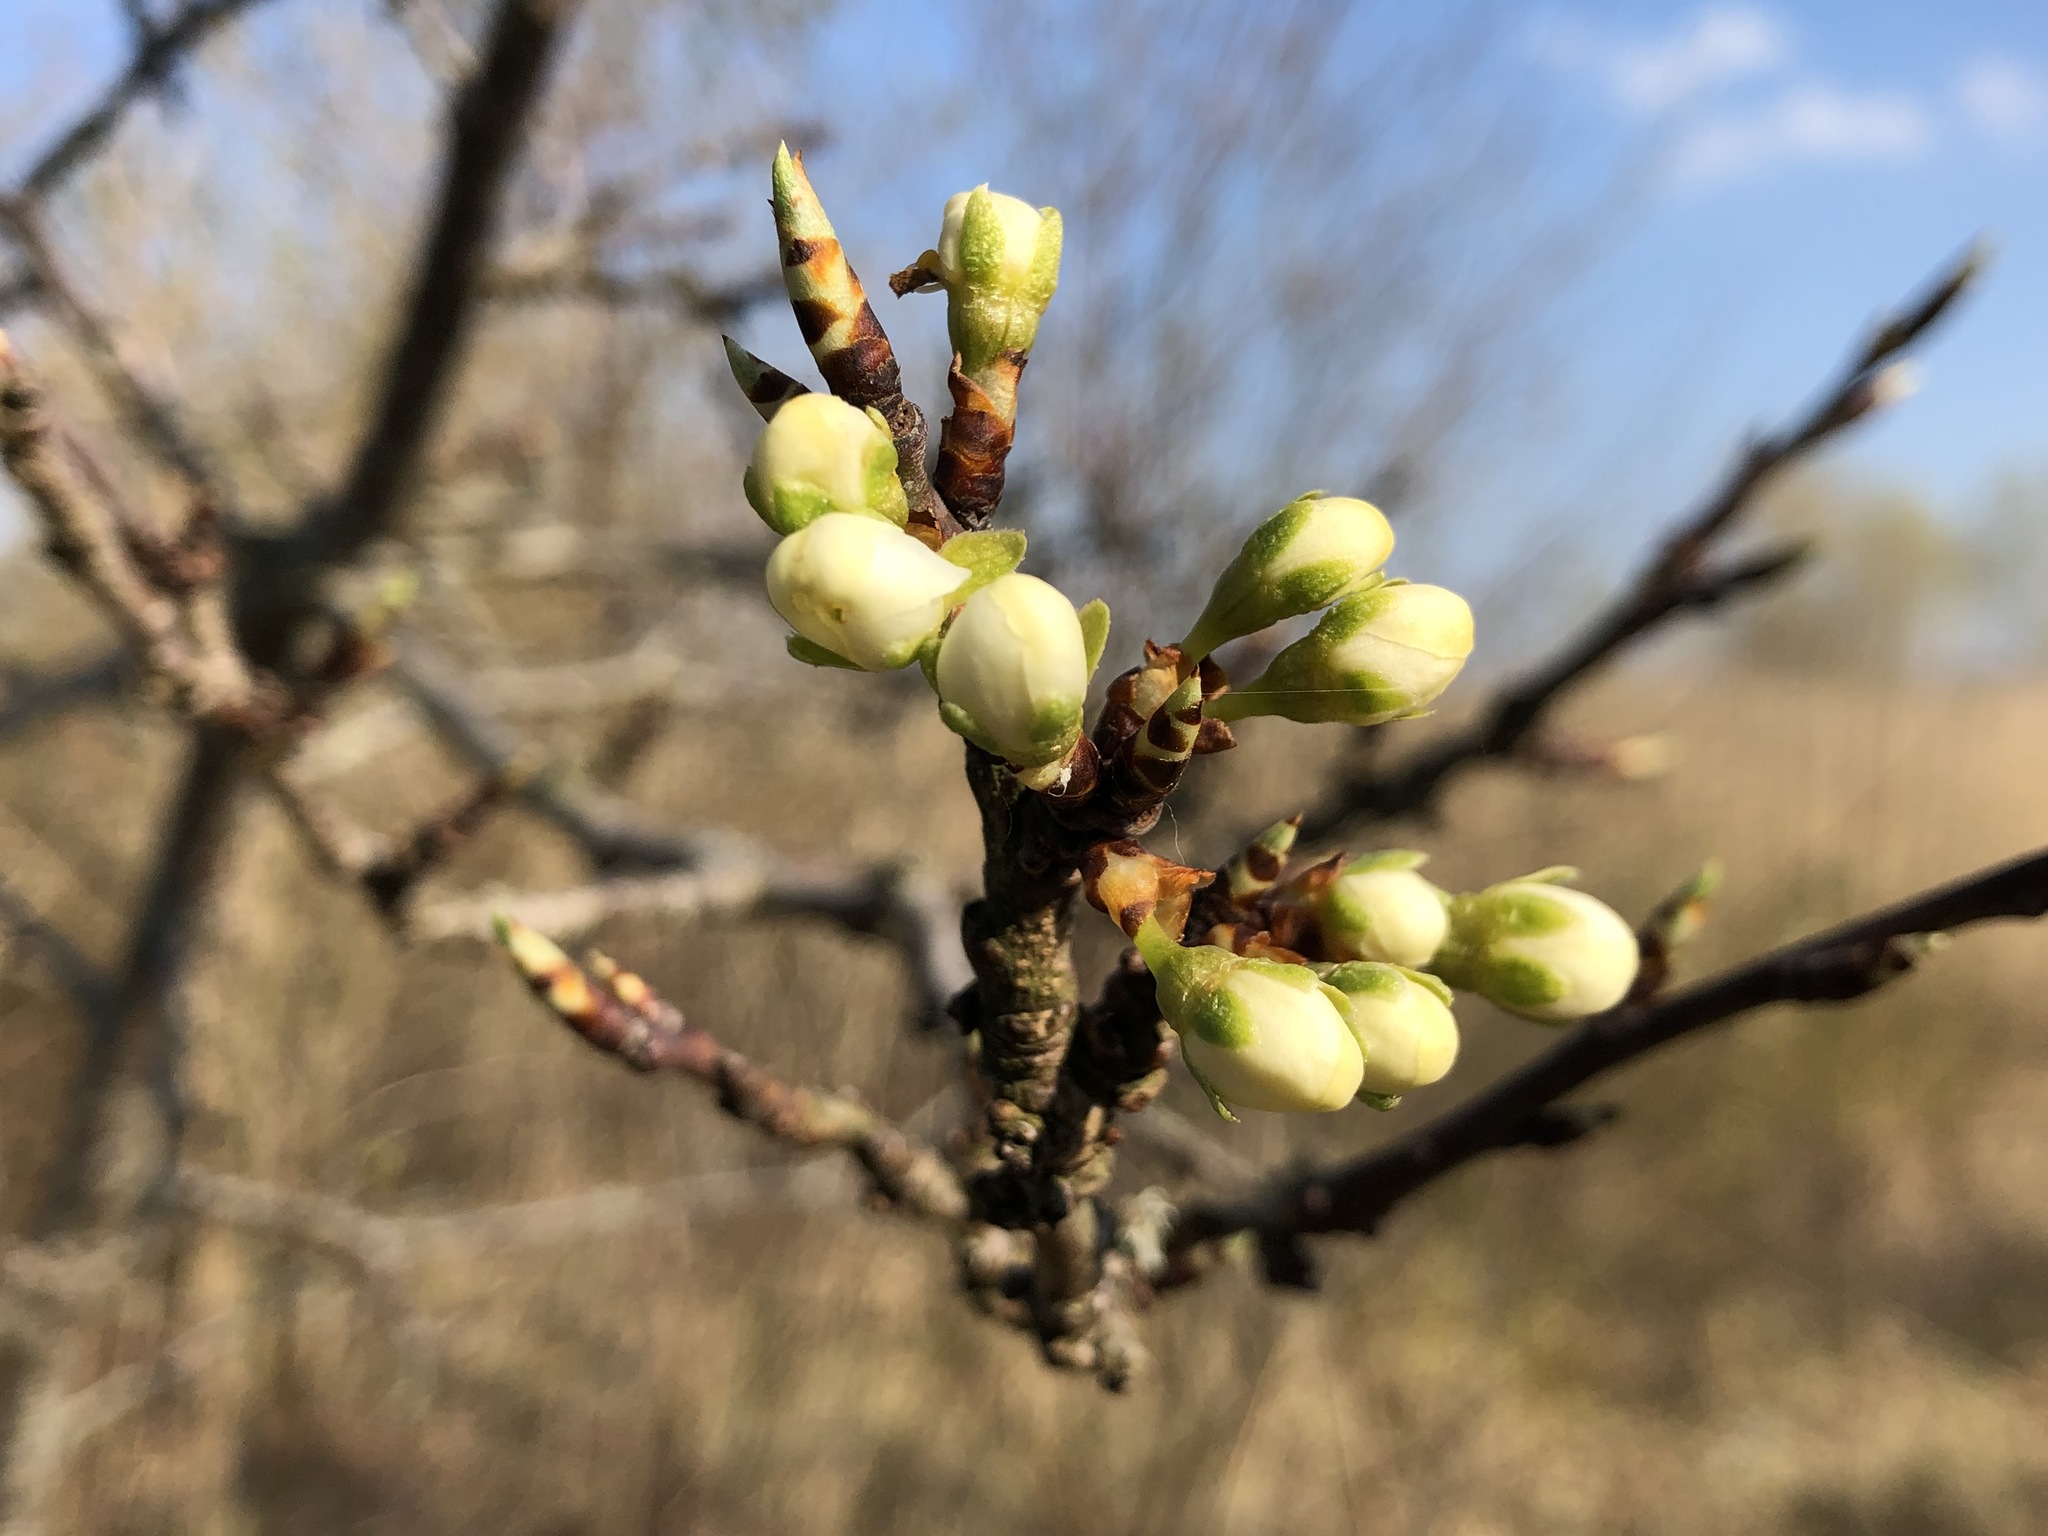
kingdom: Plantae
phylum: Tracheophyta
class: Magnoliopsida
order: Rosales
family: Rosaceae
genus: Prunus
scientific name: Prunus cerasifera
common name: Cherry plum
